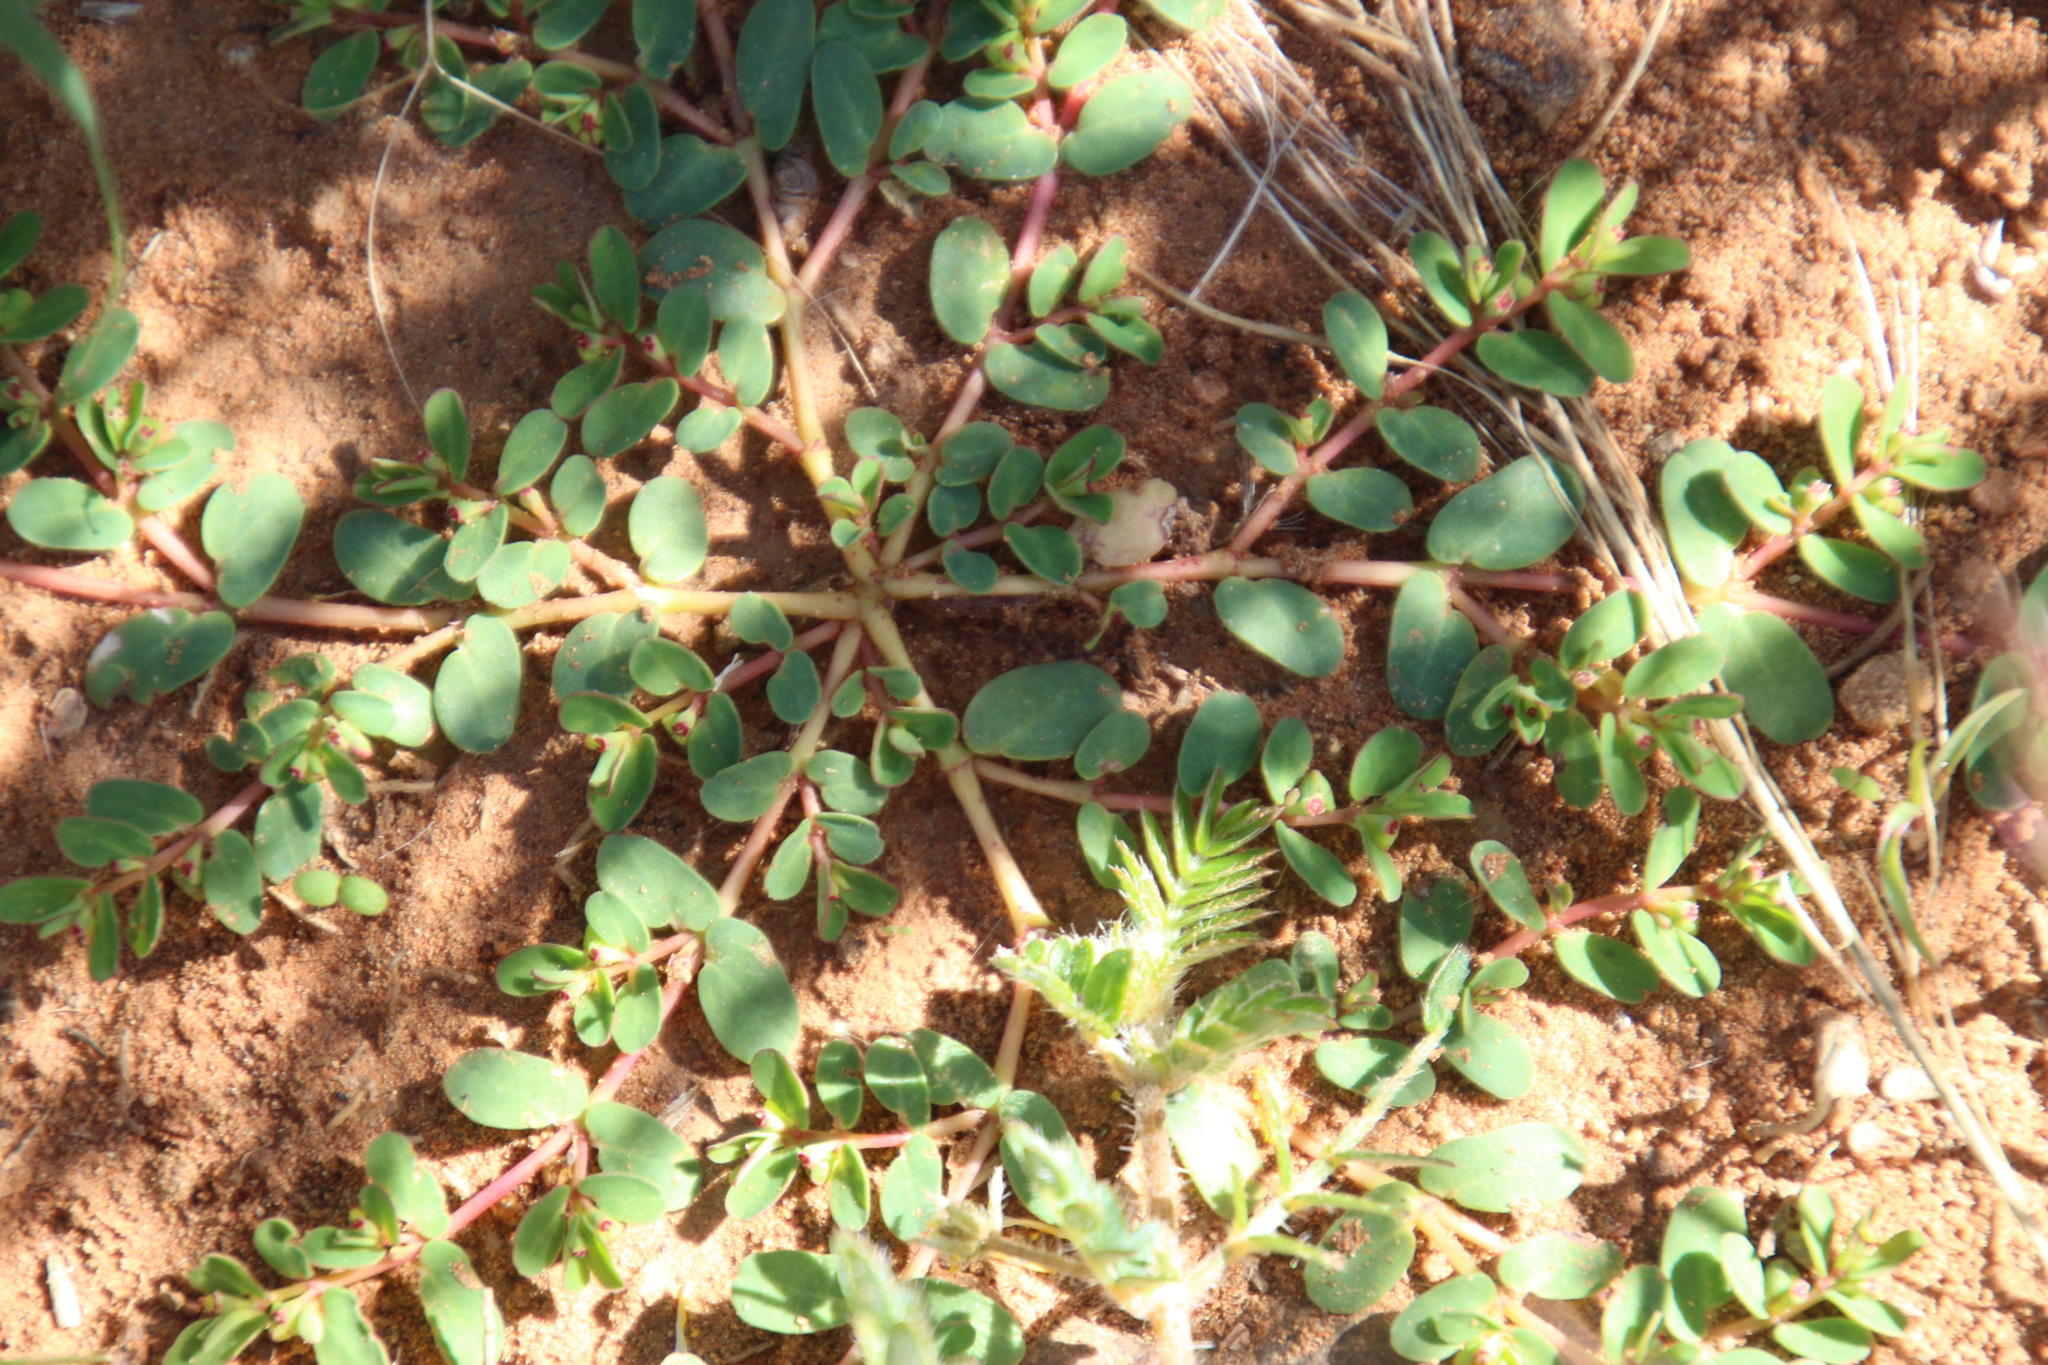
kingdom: Plantae
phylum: Tracheophyta
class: Magnoliopsida
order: Malpighiales
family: Euphorbiaceae
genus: Euphorbia
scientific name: Euphorbia inaequilatera
